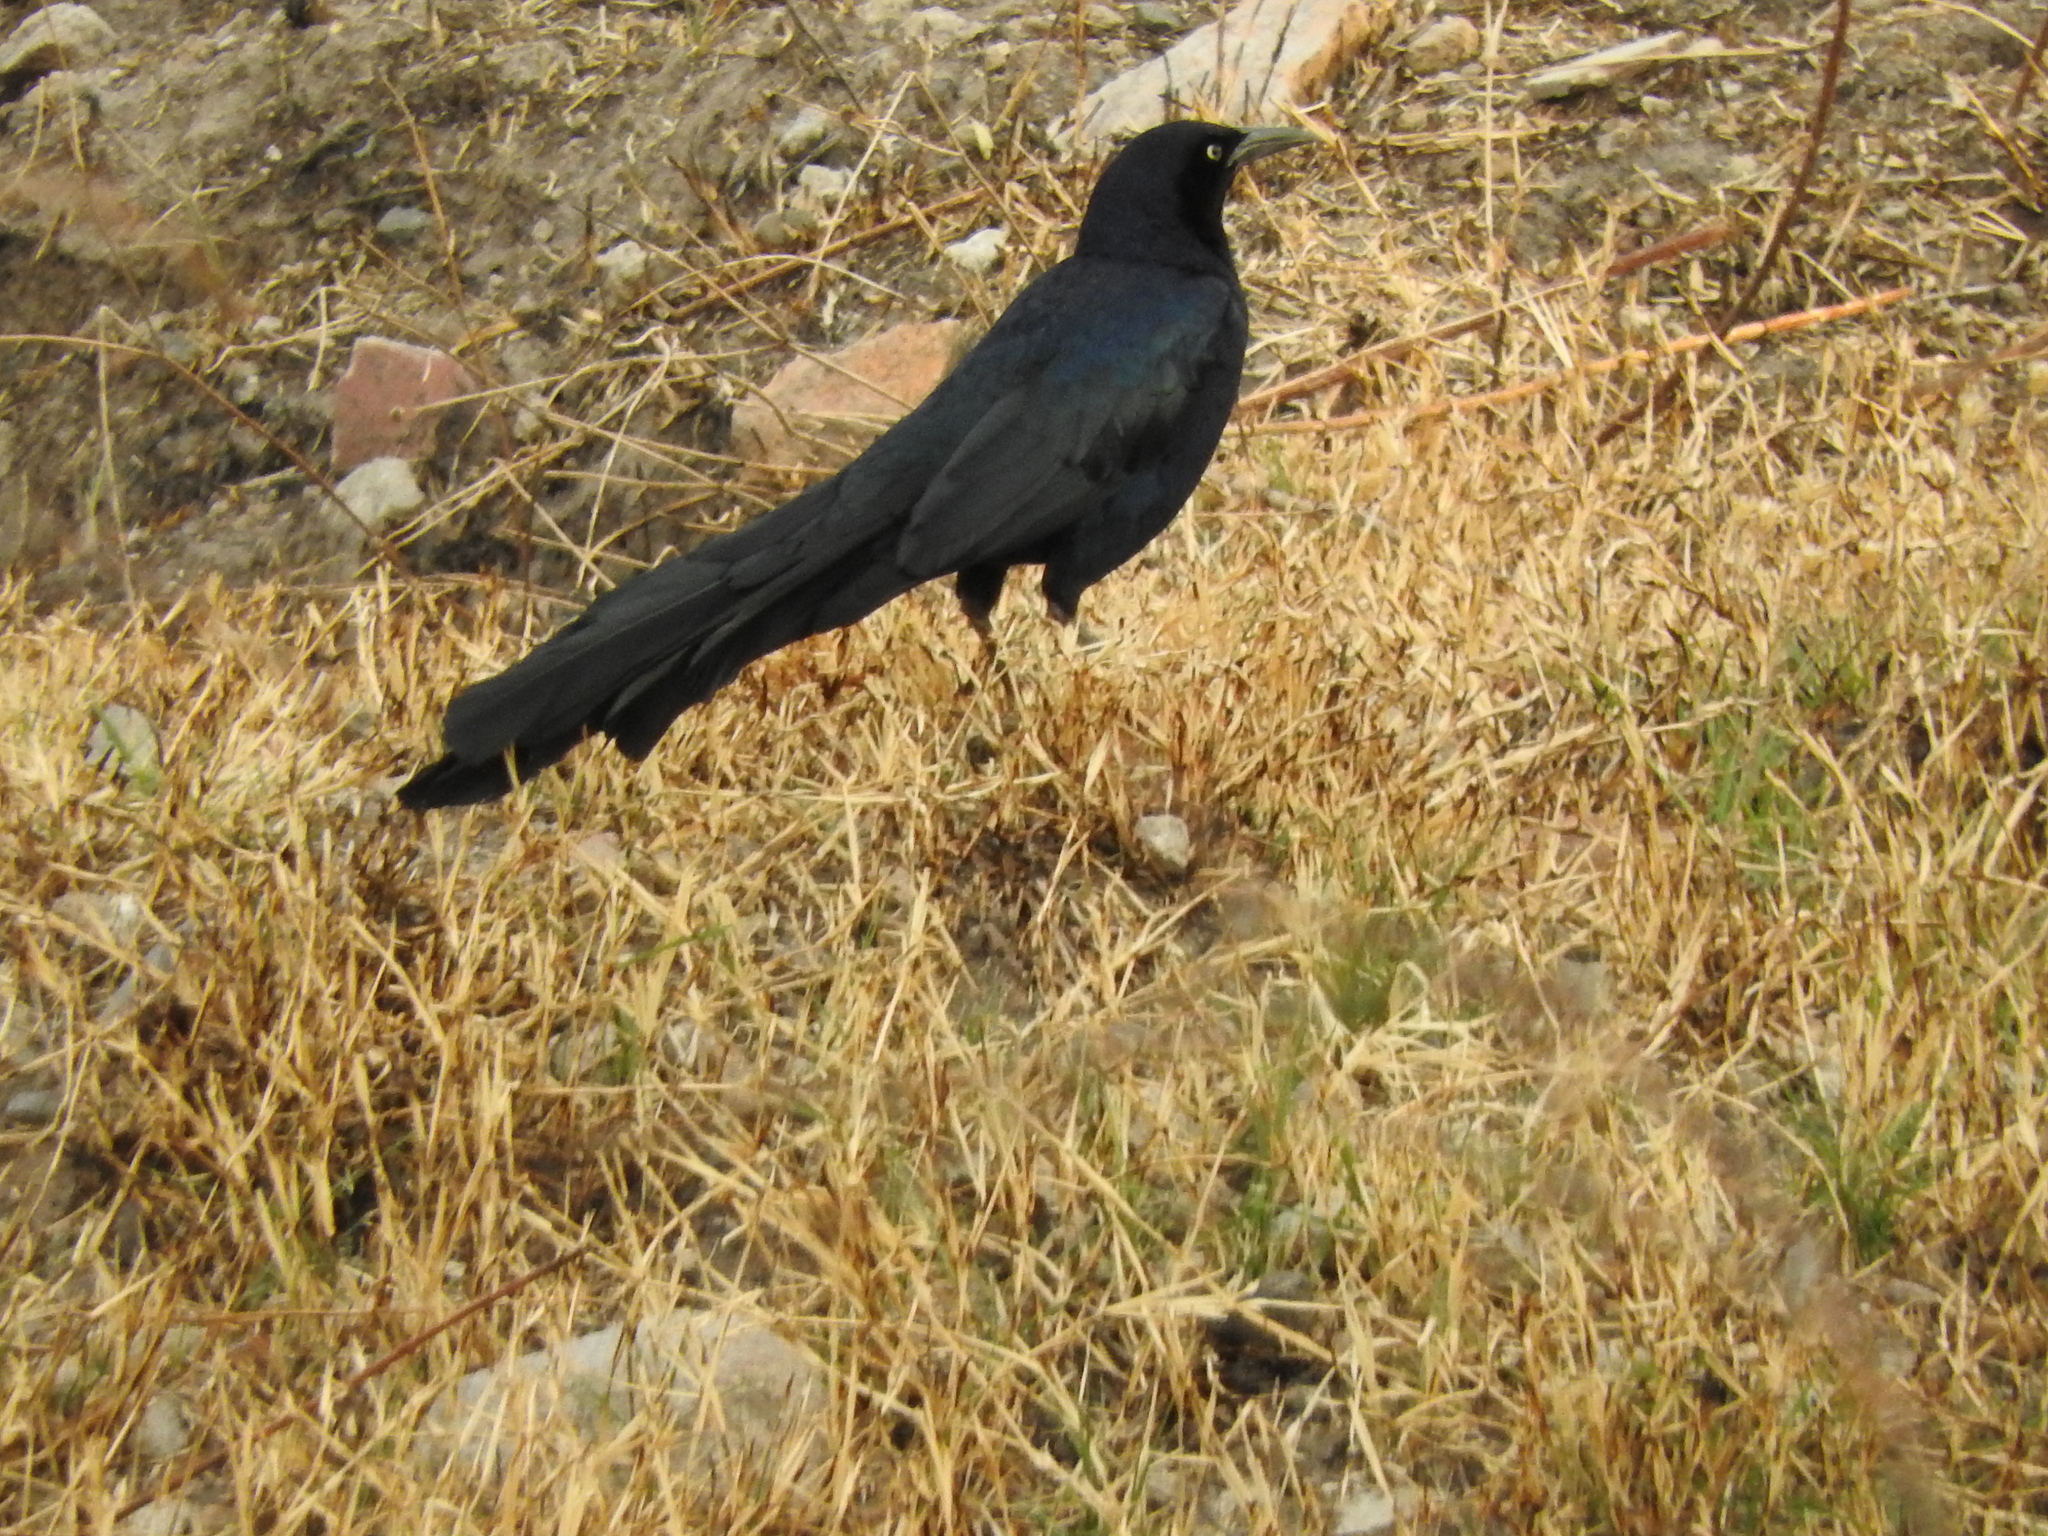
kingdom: Animalia
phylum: Chordata
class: Aves
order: Passeriformes
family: Icteridae
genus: Quiscalus
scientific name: Quiscalus mexicanus
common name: Great-tailed grackle
